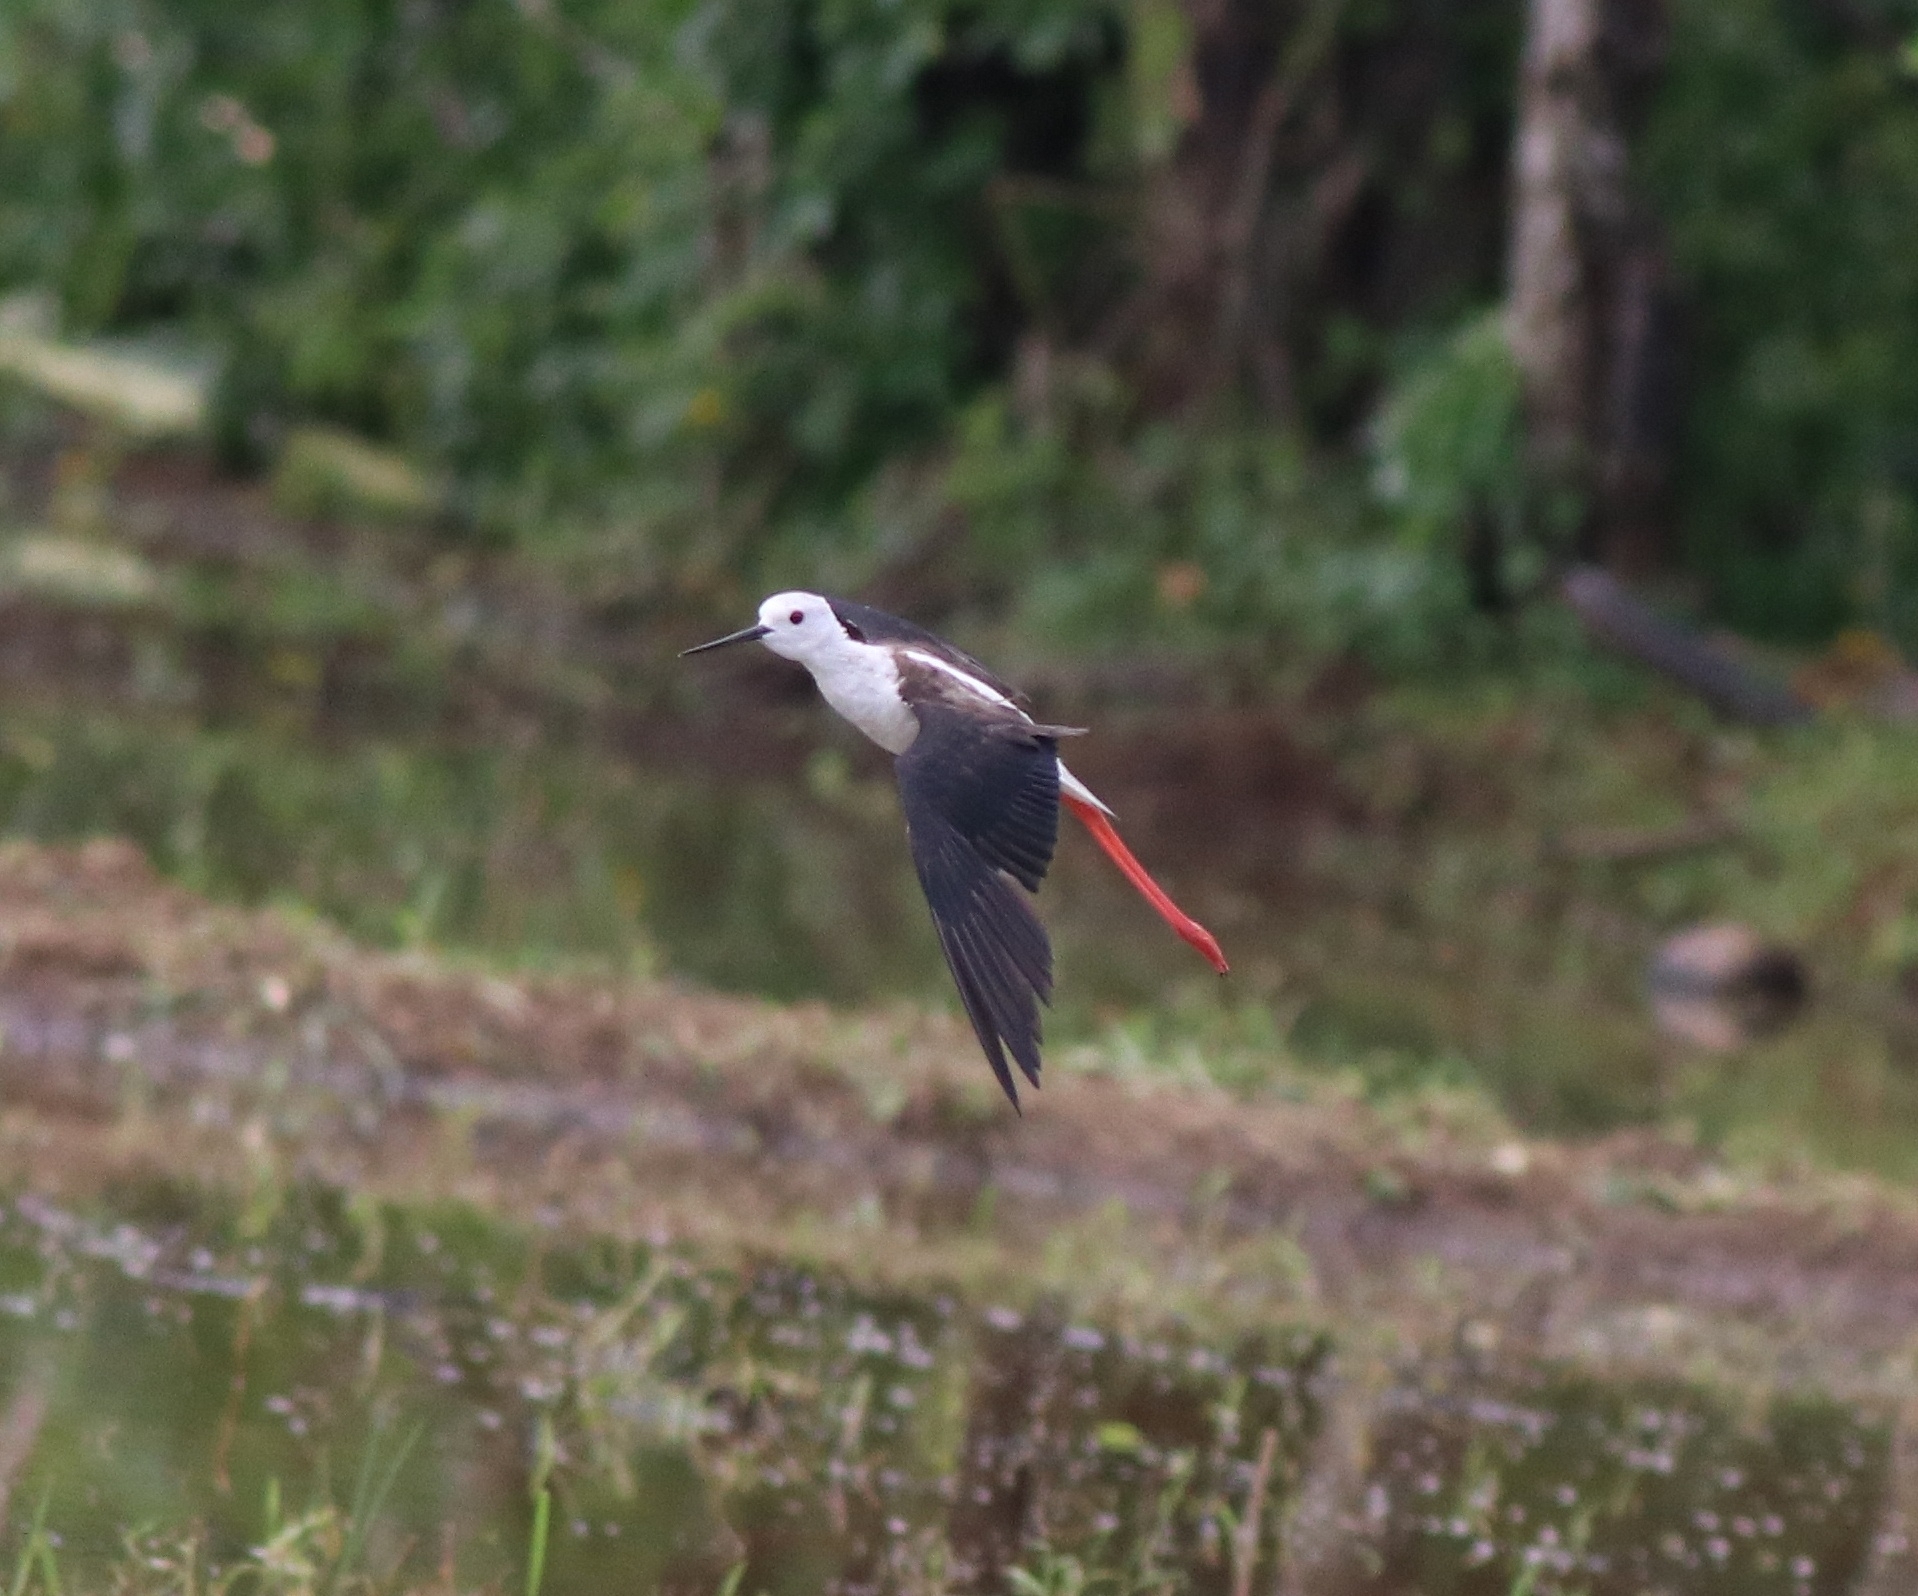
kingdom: Animalia
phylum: Chordata
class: Aves
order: Charadriiformes
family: Recurvirostridae
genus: Himantopus
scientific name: Himantopus himantopus
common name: Black-winged stilt
